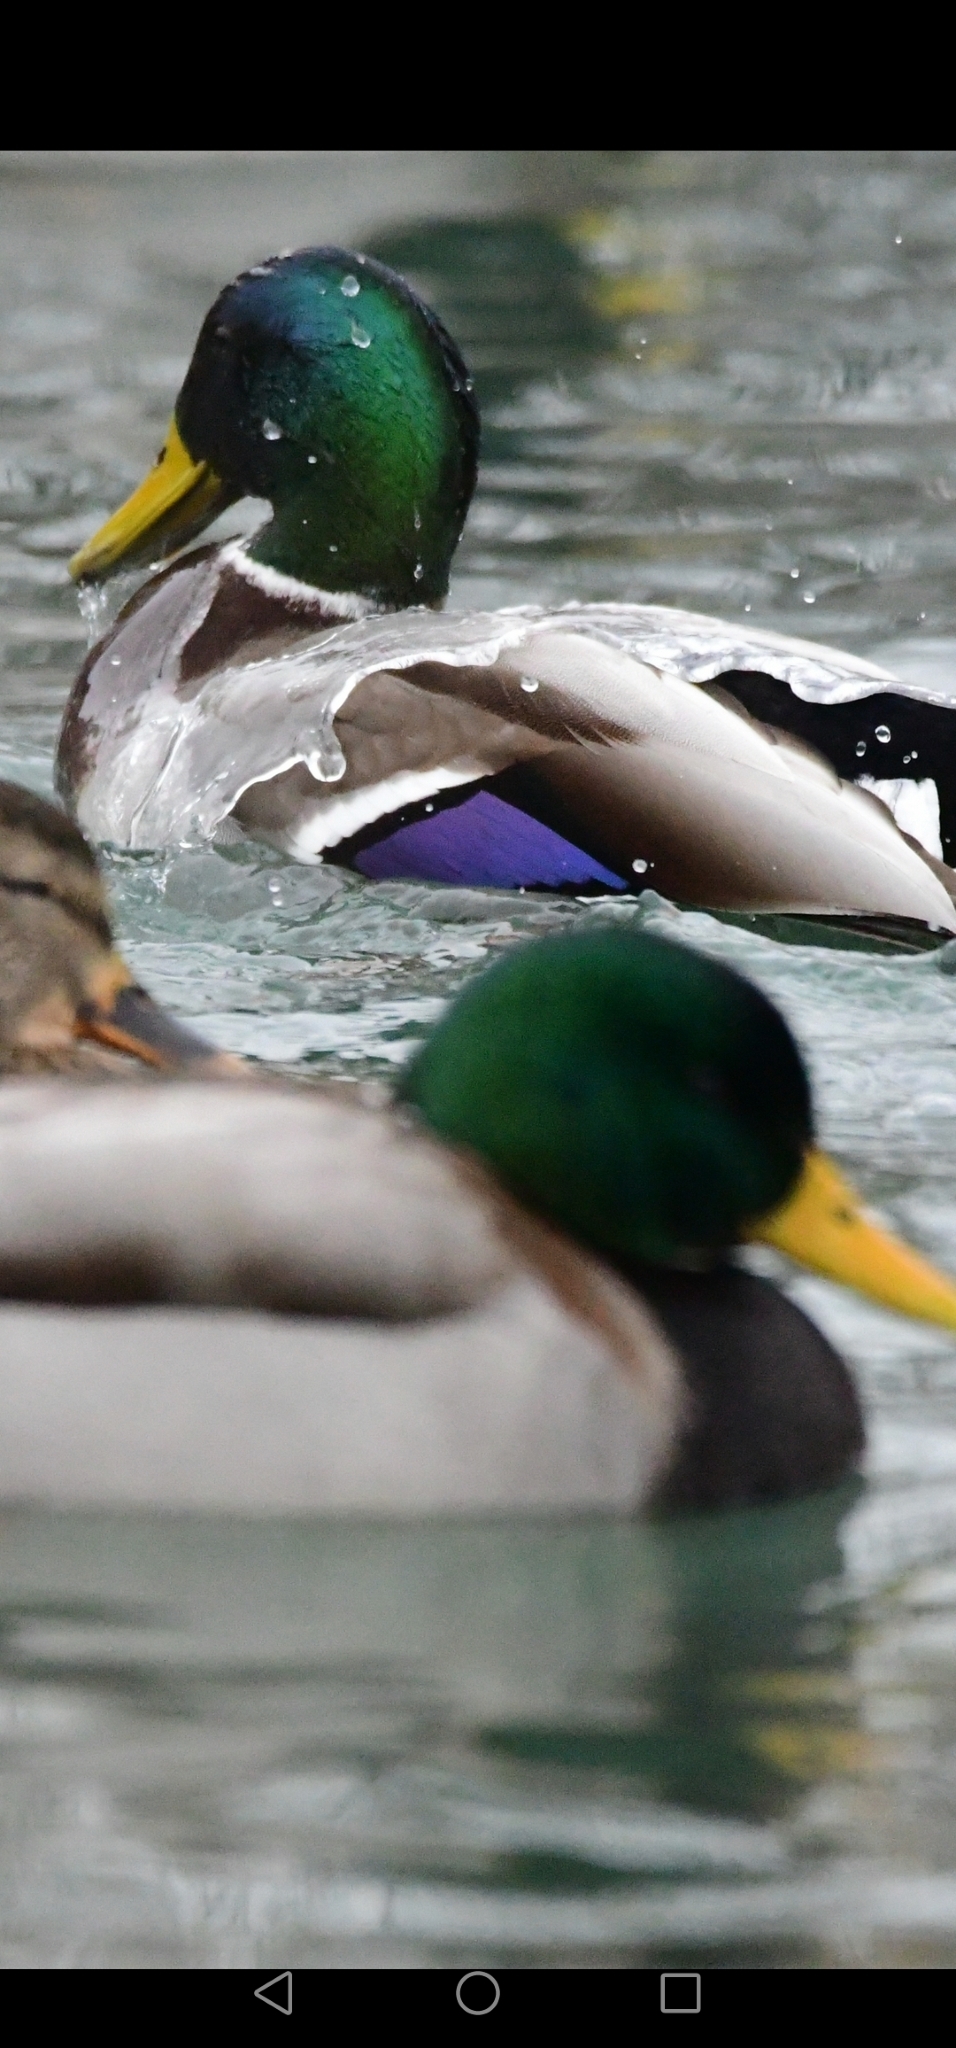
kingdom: Animalia
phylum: Chordata
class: Aves
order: Anseriformes
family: Anatidae
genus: Anas
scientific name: Anas platyrhynchos
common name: Mallard
